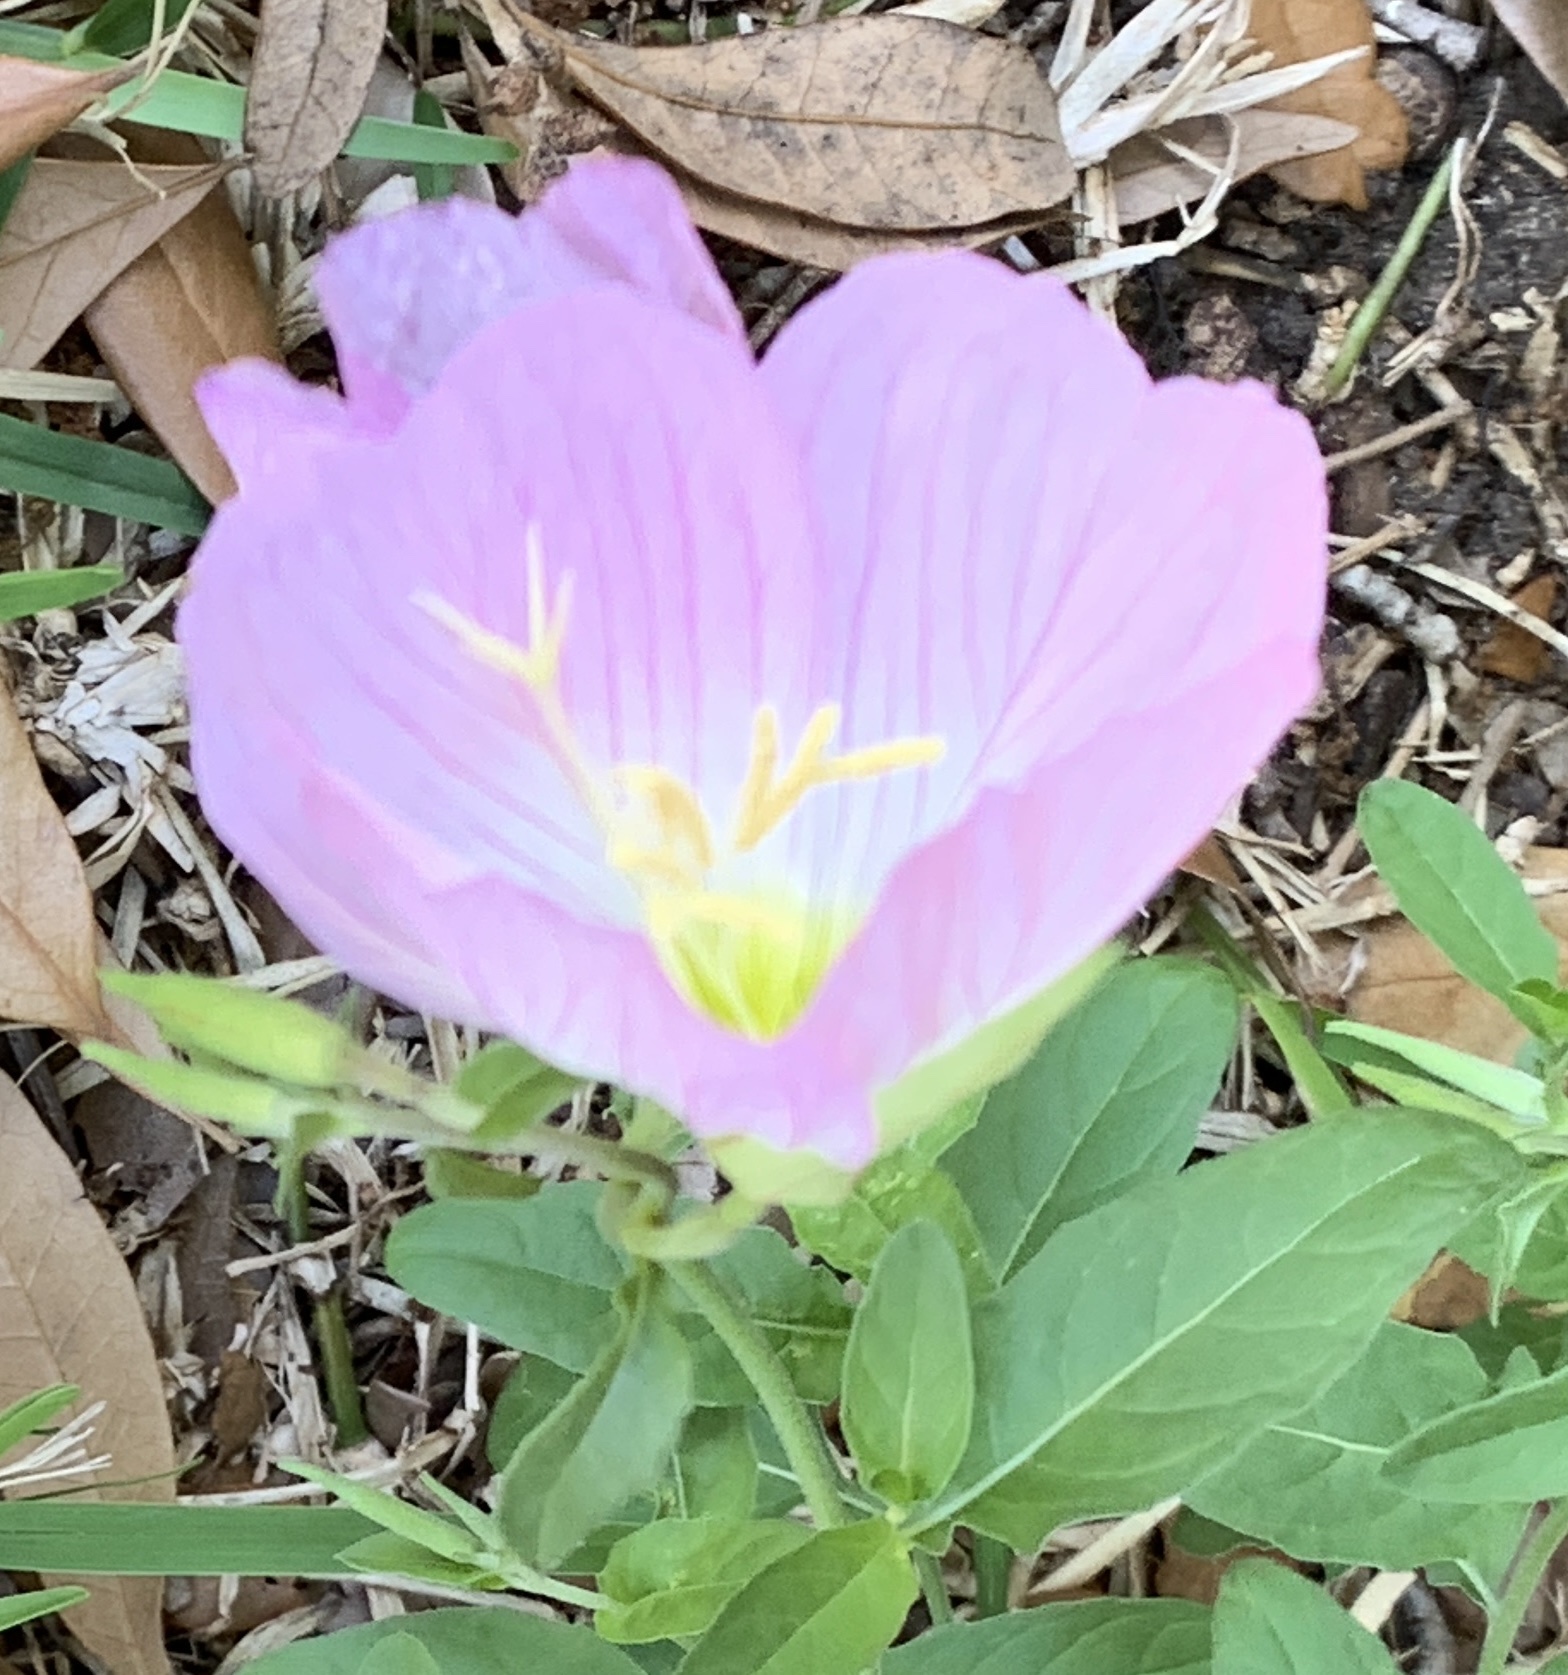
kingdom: Plantae
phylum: Tracheophyta
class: Magnoliopsida
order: Myrtales
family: Onagraceae
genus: Oenothera
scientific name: Oenothera speciosa
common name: White evening-primrose
